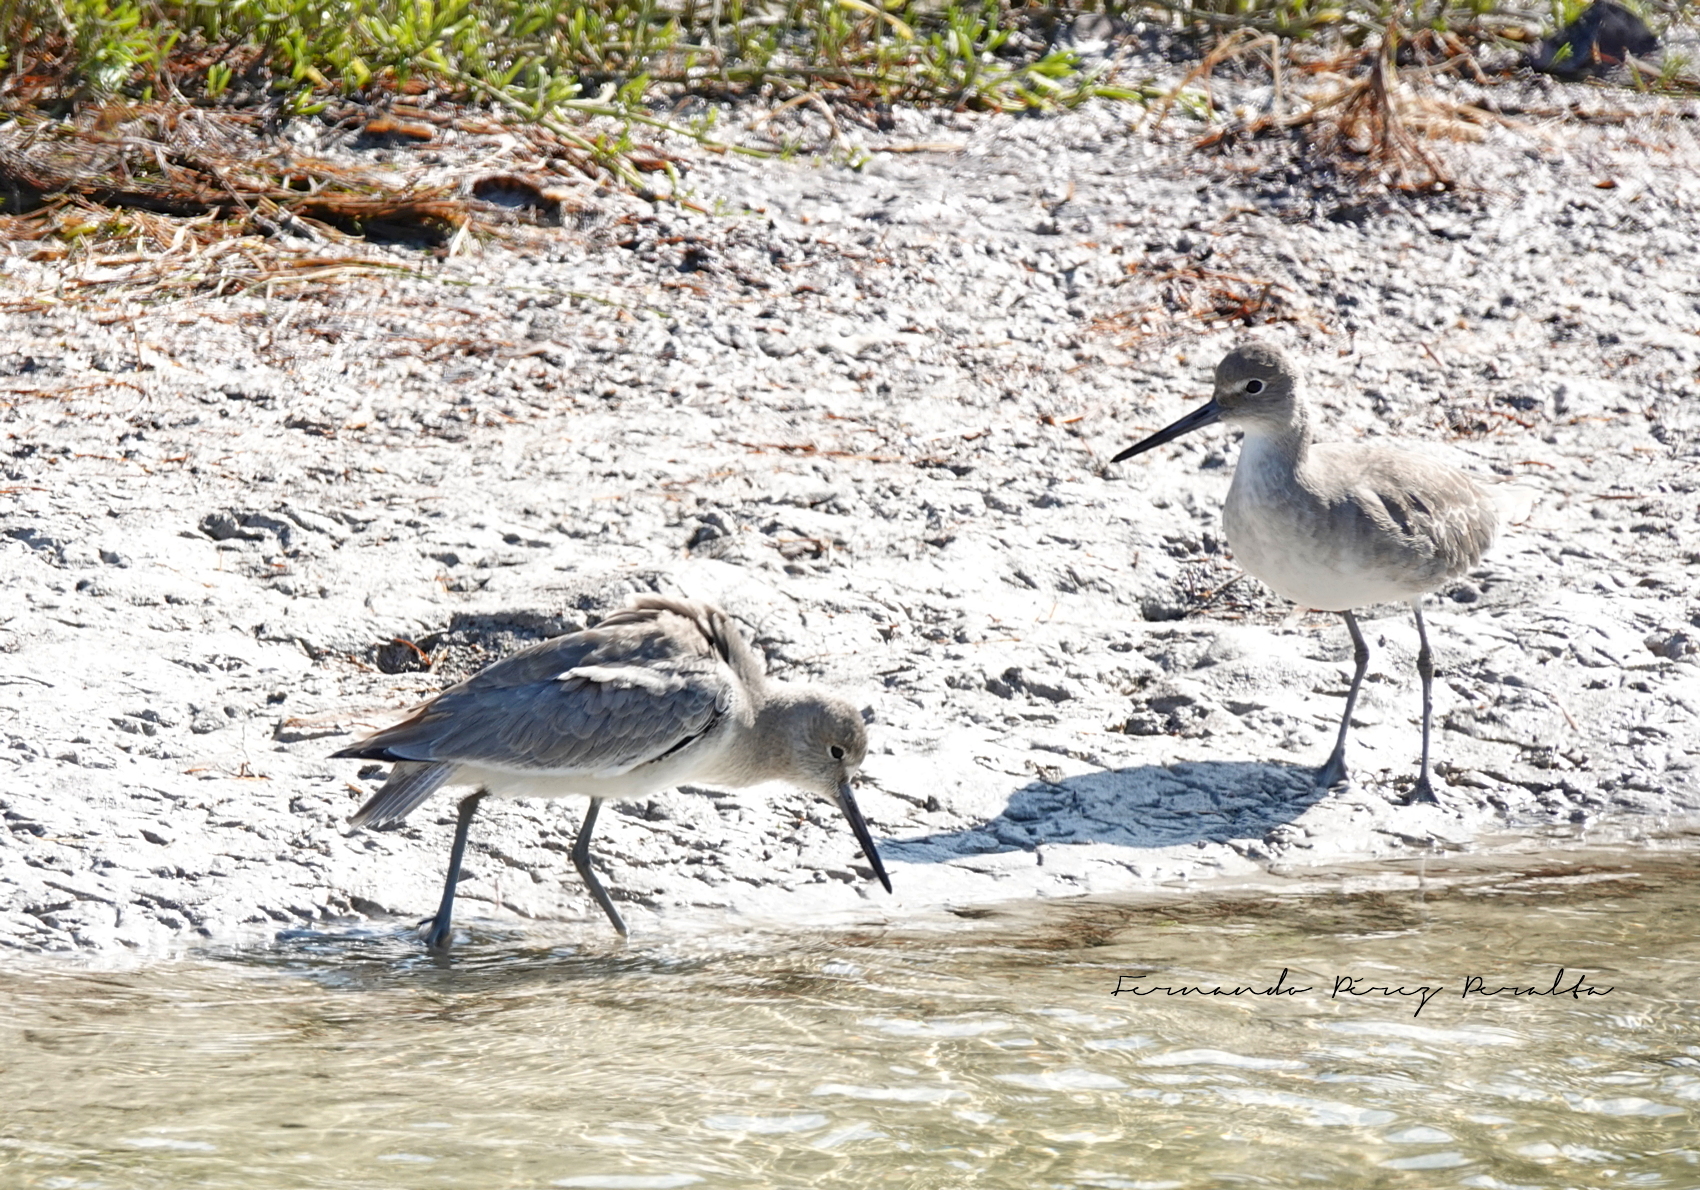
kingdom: Animalia
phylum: Chordata
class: Aves
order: Charadriiformes
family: Scolopacidae
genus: Tringa
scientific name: Tringa semipalmata
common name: Willet
